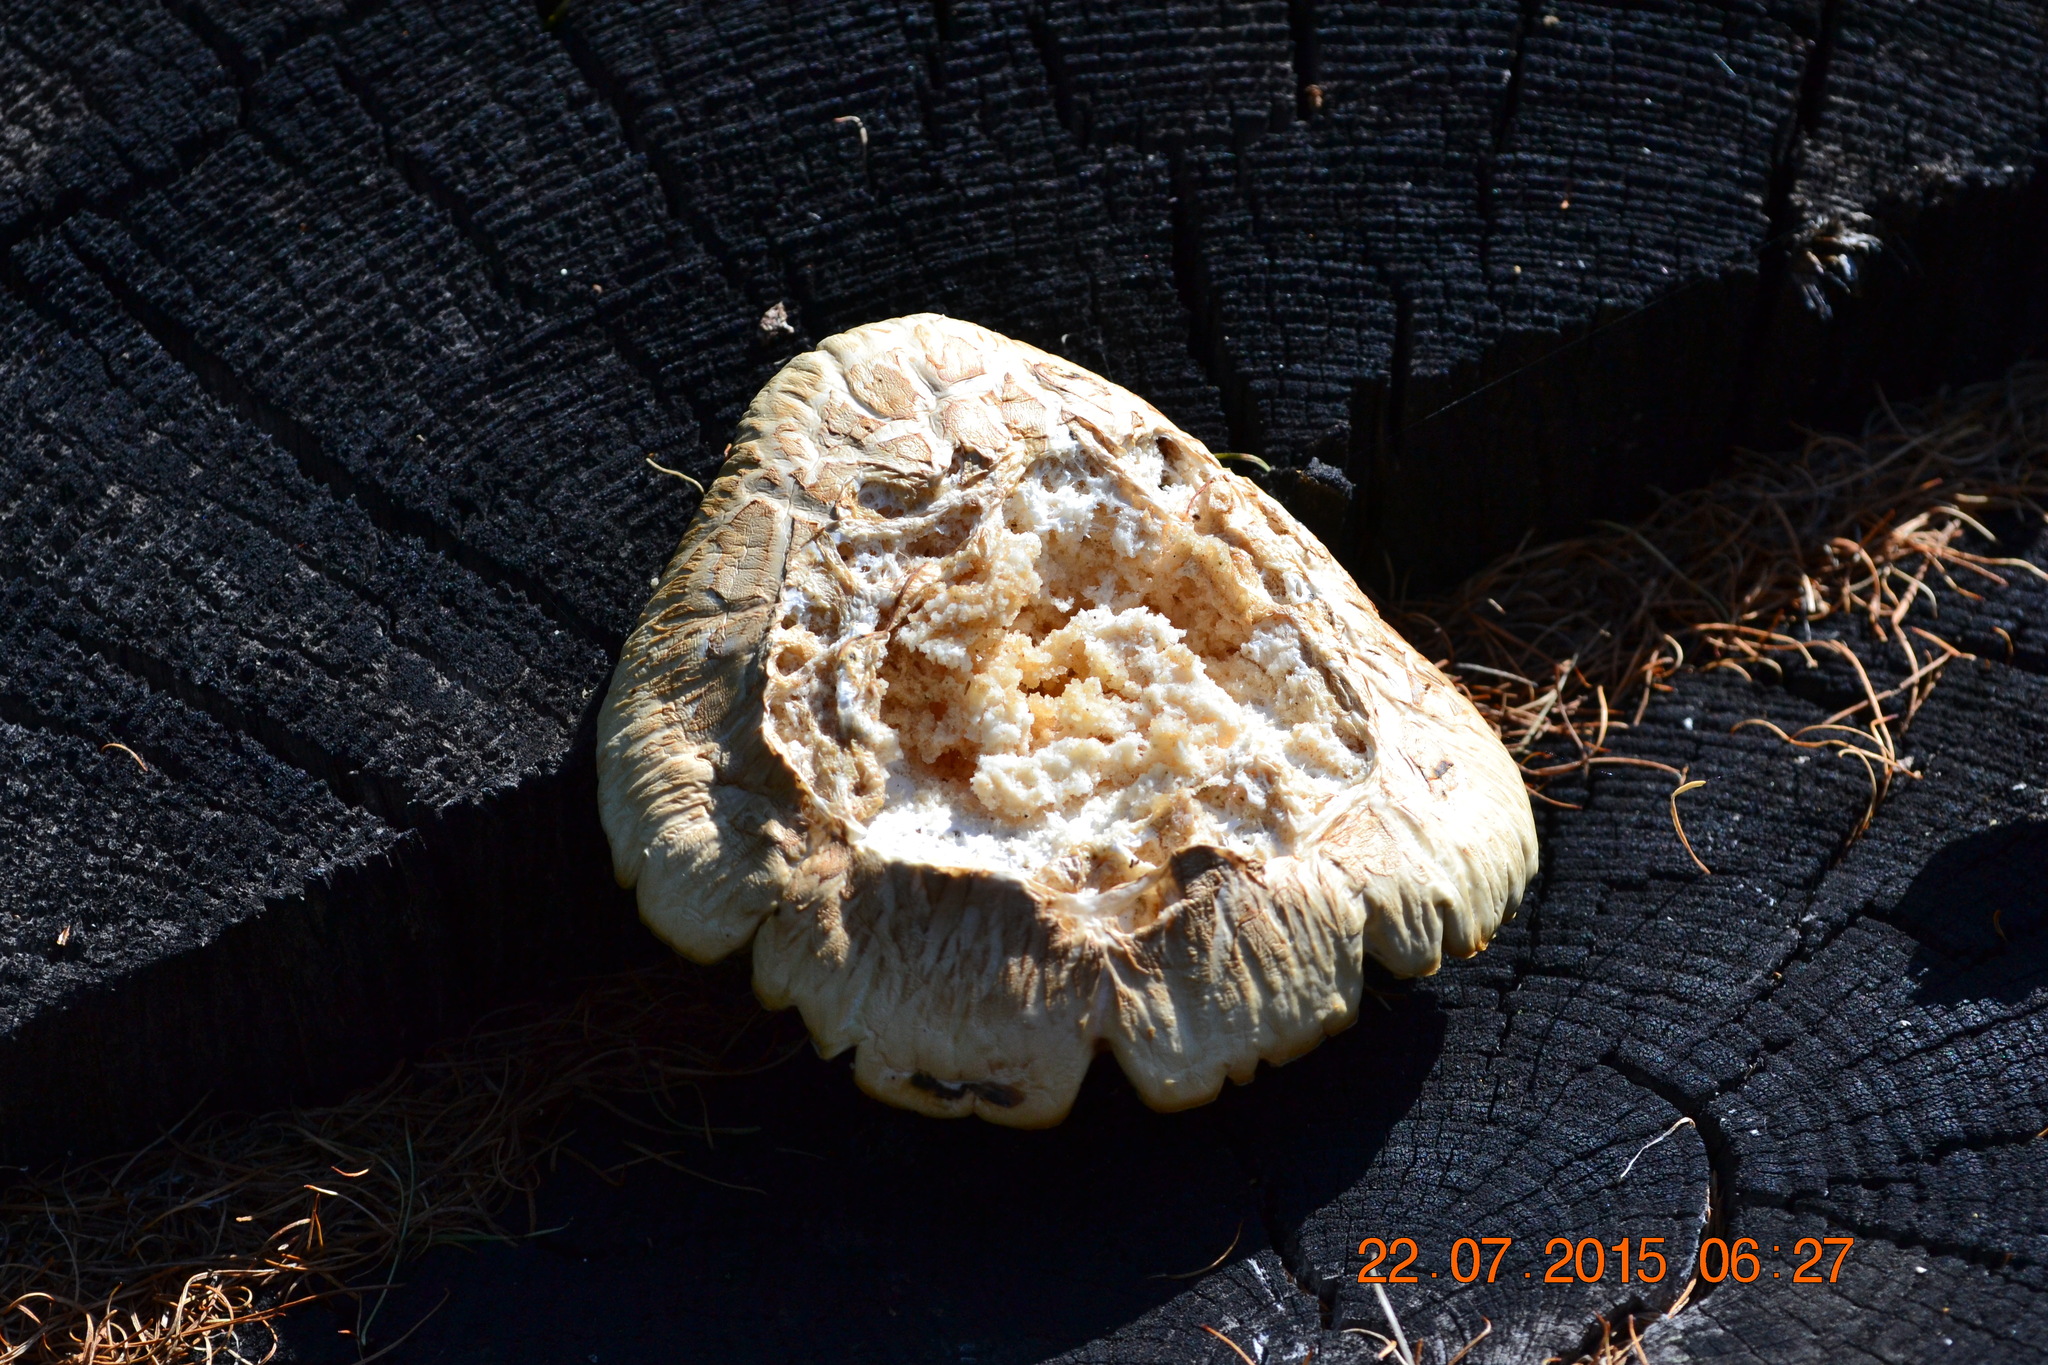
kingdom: Fungi
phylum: Basidiomycota
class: Agaricomycetes
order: Gloeophyllales
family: Gloeophyllaceae
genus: Neolentinus
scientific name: Neolentinus lepideus
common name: Scaly sawgill
